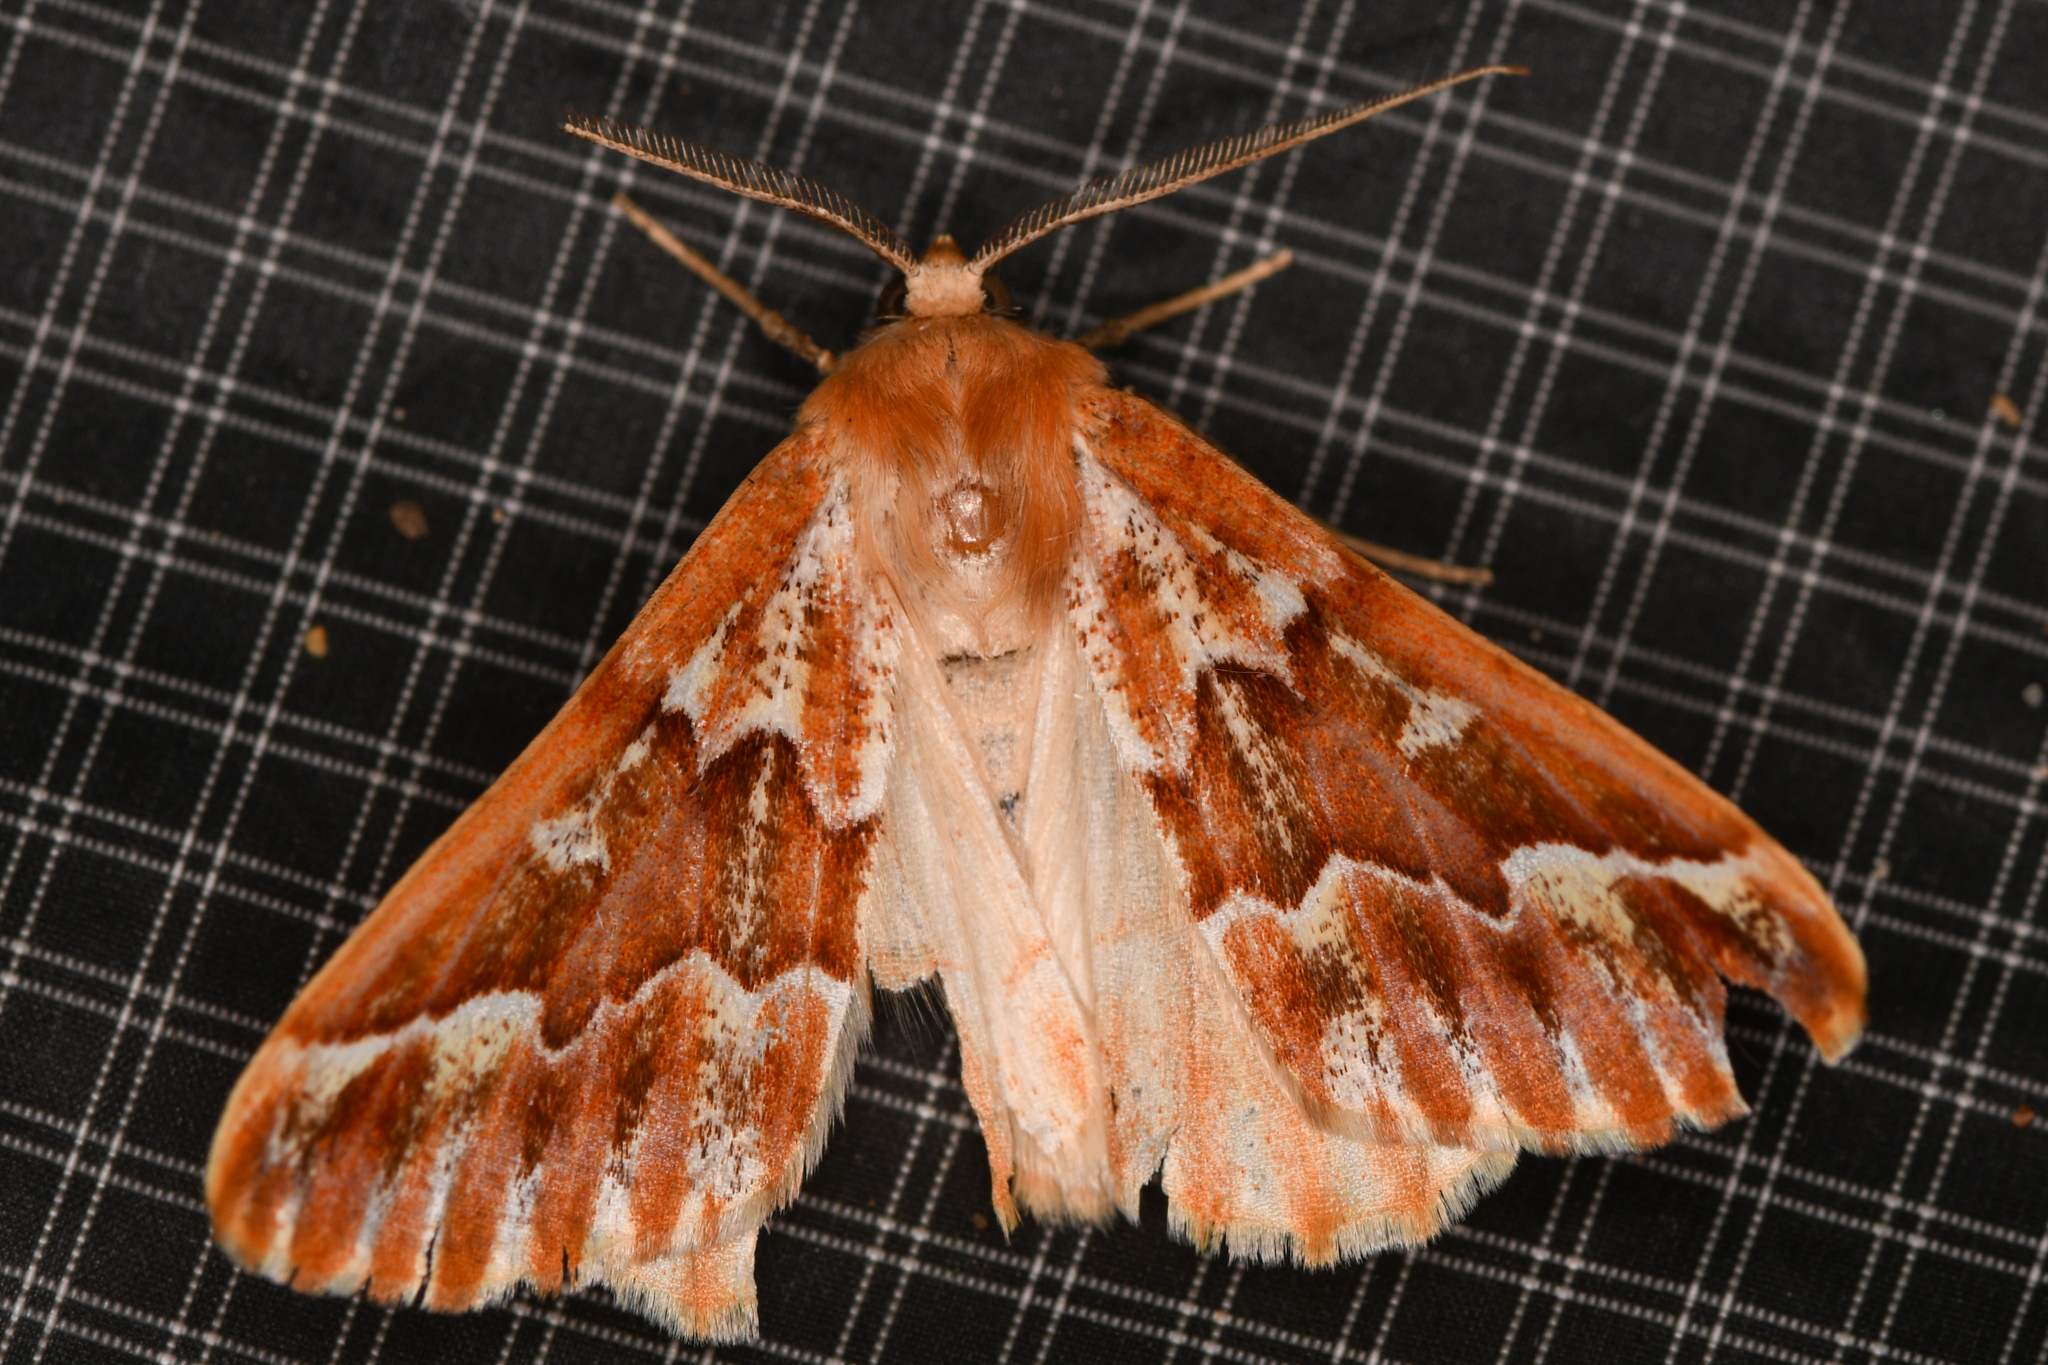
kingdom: Animalia
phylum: Arthropoda
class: Insecta
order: Lepidoptera
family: Geometridae
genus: Caripeta
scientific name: Caripeta aequaliaria
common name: Red girdle moth
